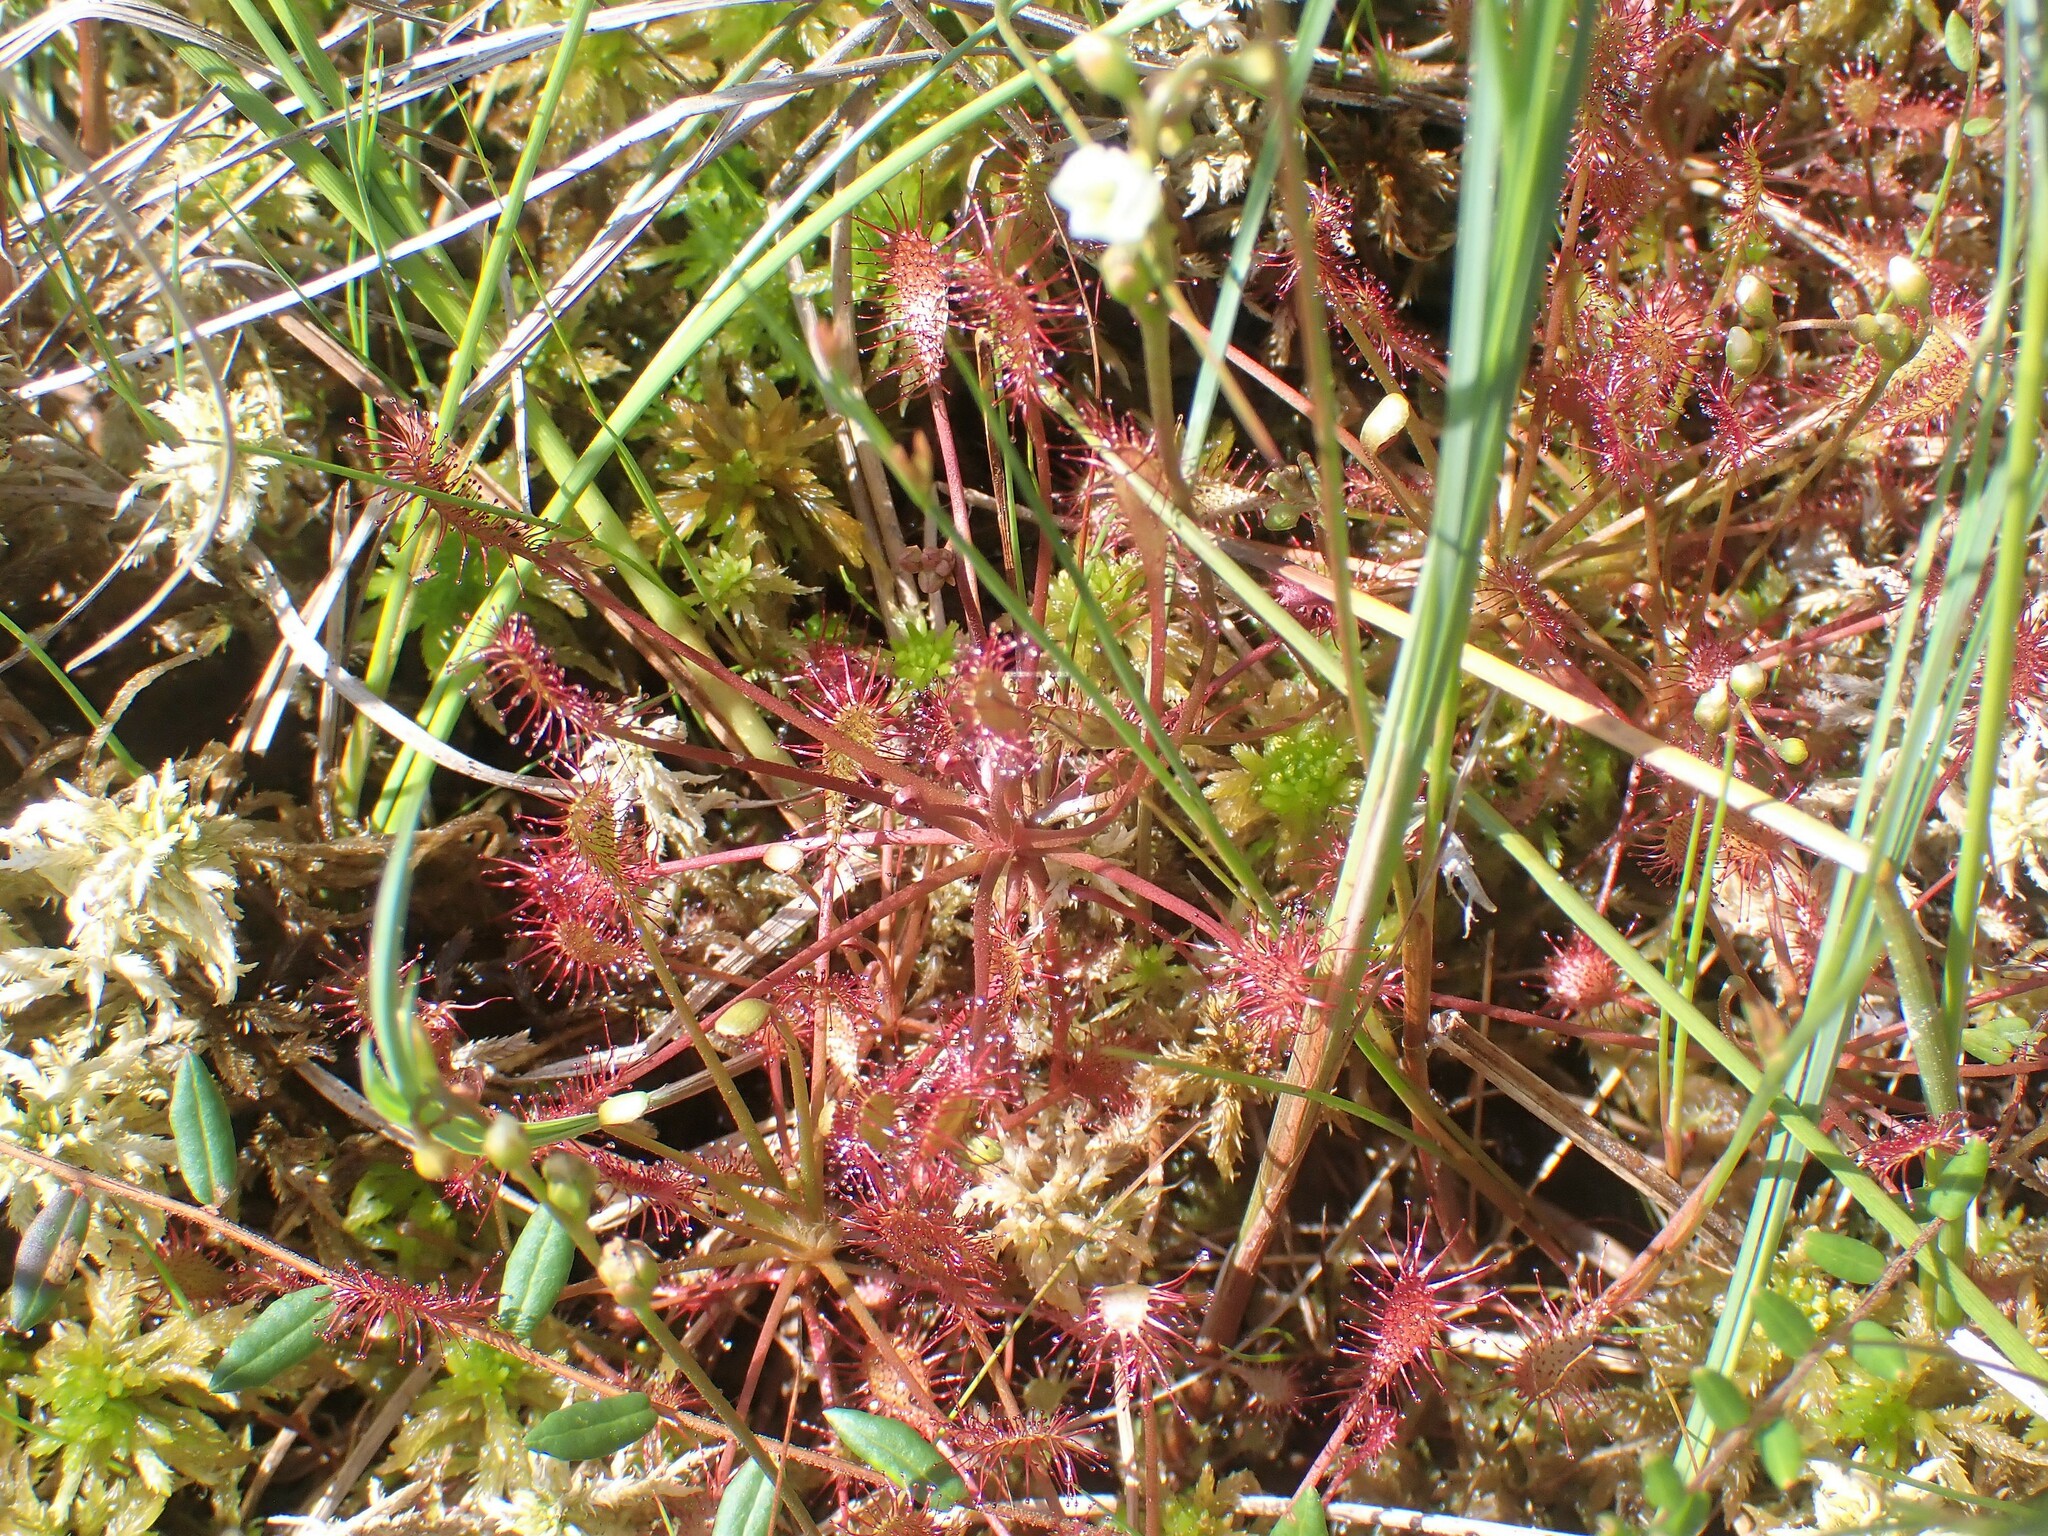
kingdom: Plantae
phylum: Tracheophyta
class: Magnoliopsida
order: Caryophyllales
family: Droseraceae
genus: Drosera
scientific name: Drosera intermedia
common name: Oblong-leaved sundew
